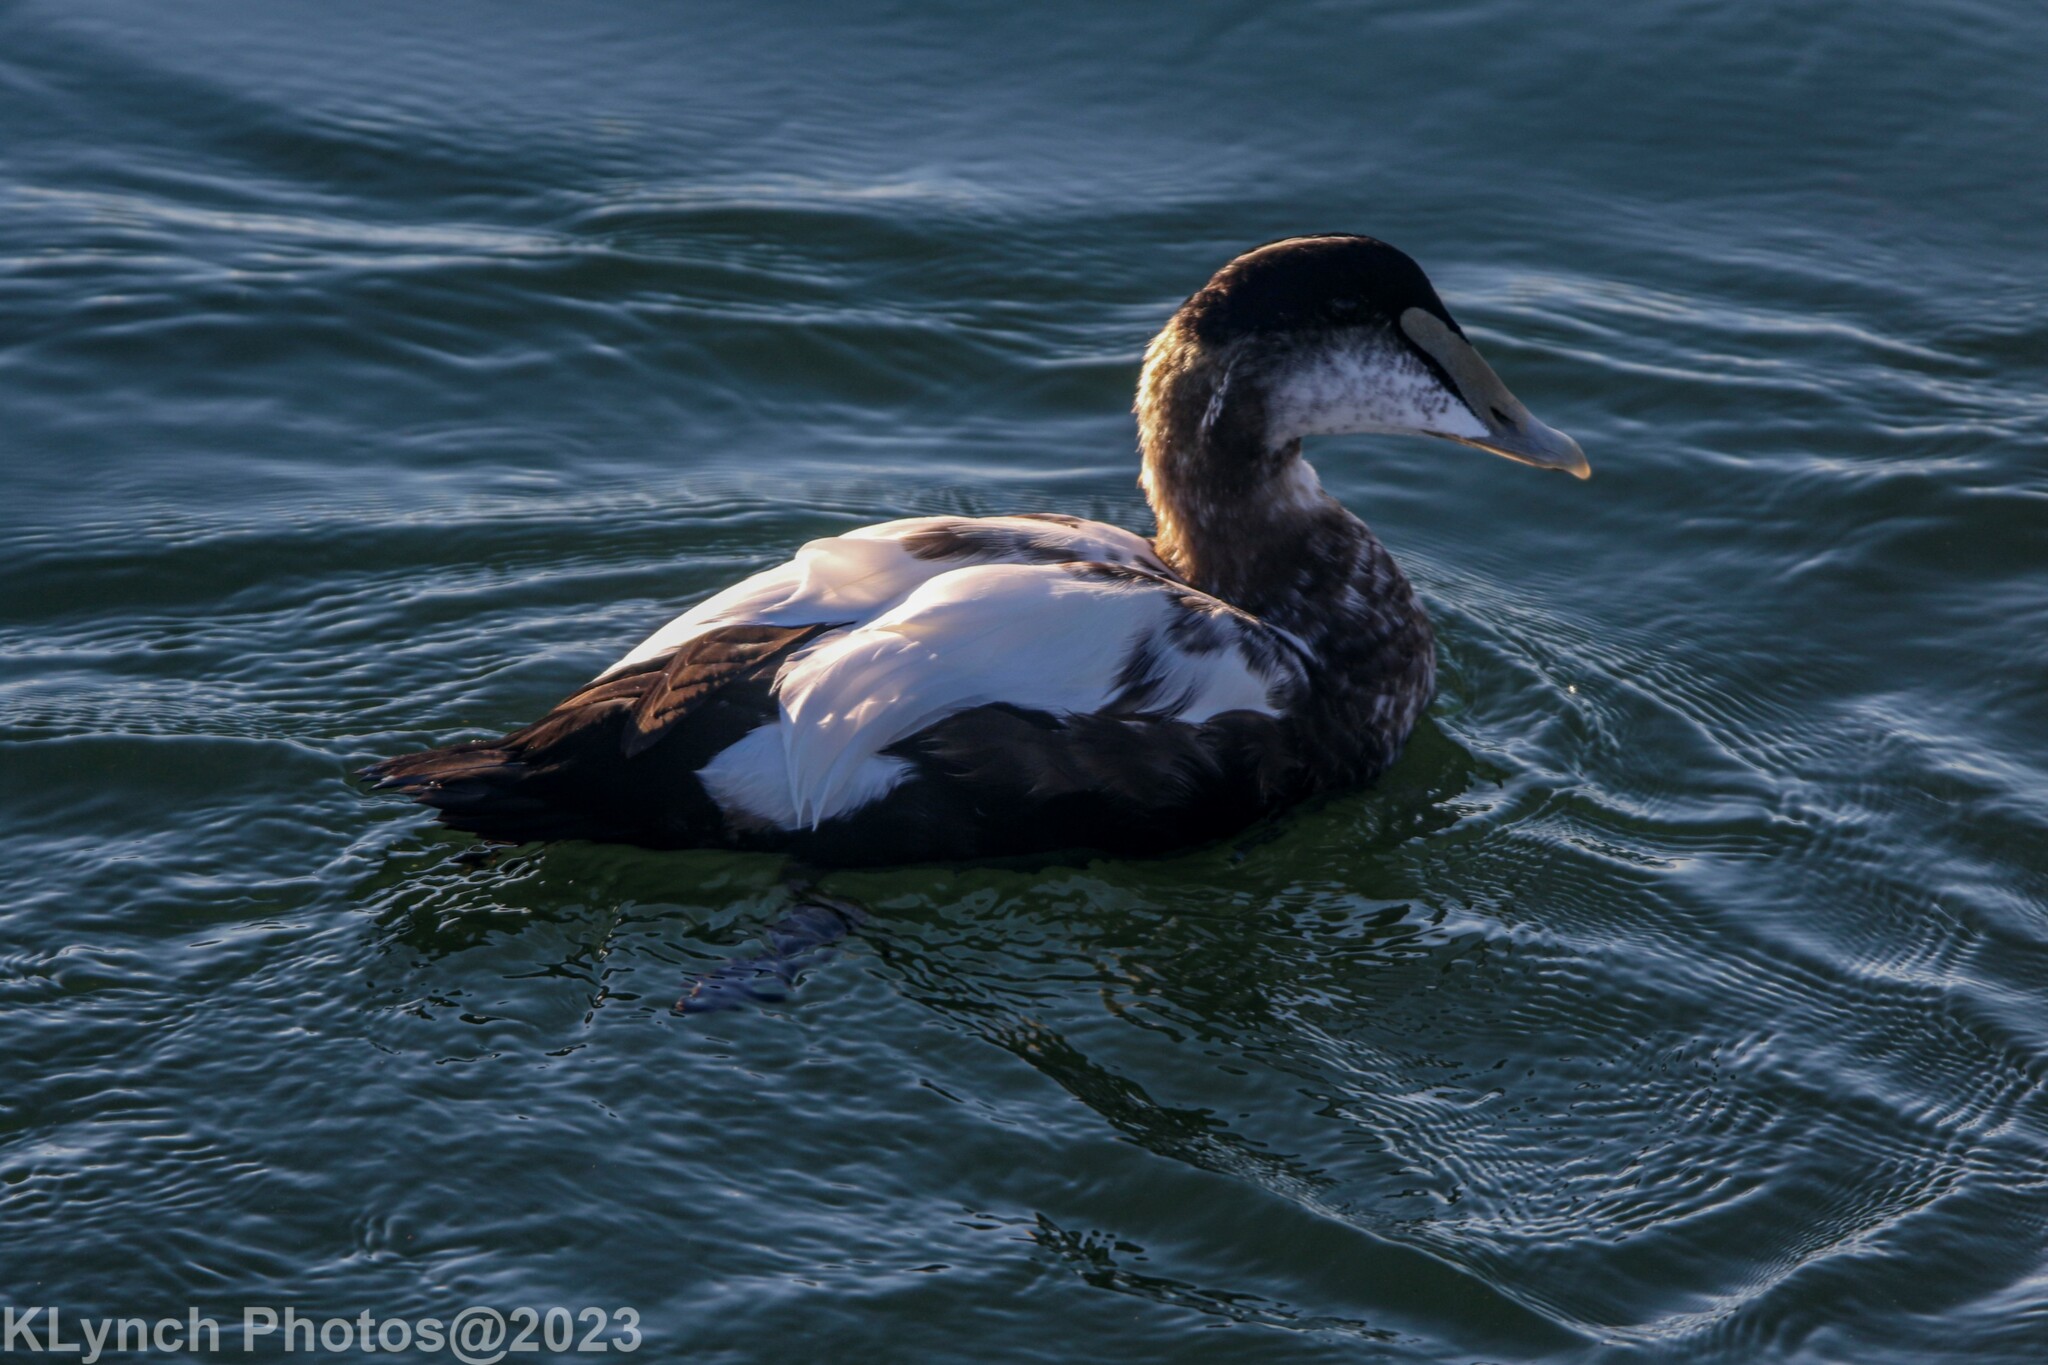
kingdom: Animalia
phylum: Chordata
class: Aves
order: Anseriformes
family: Anatidae
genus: Somateria
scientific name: Somateria mollissima
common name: Common eider
